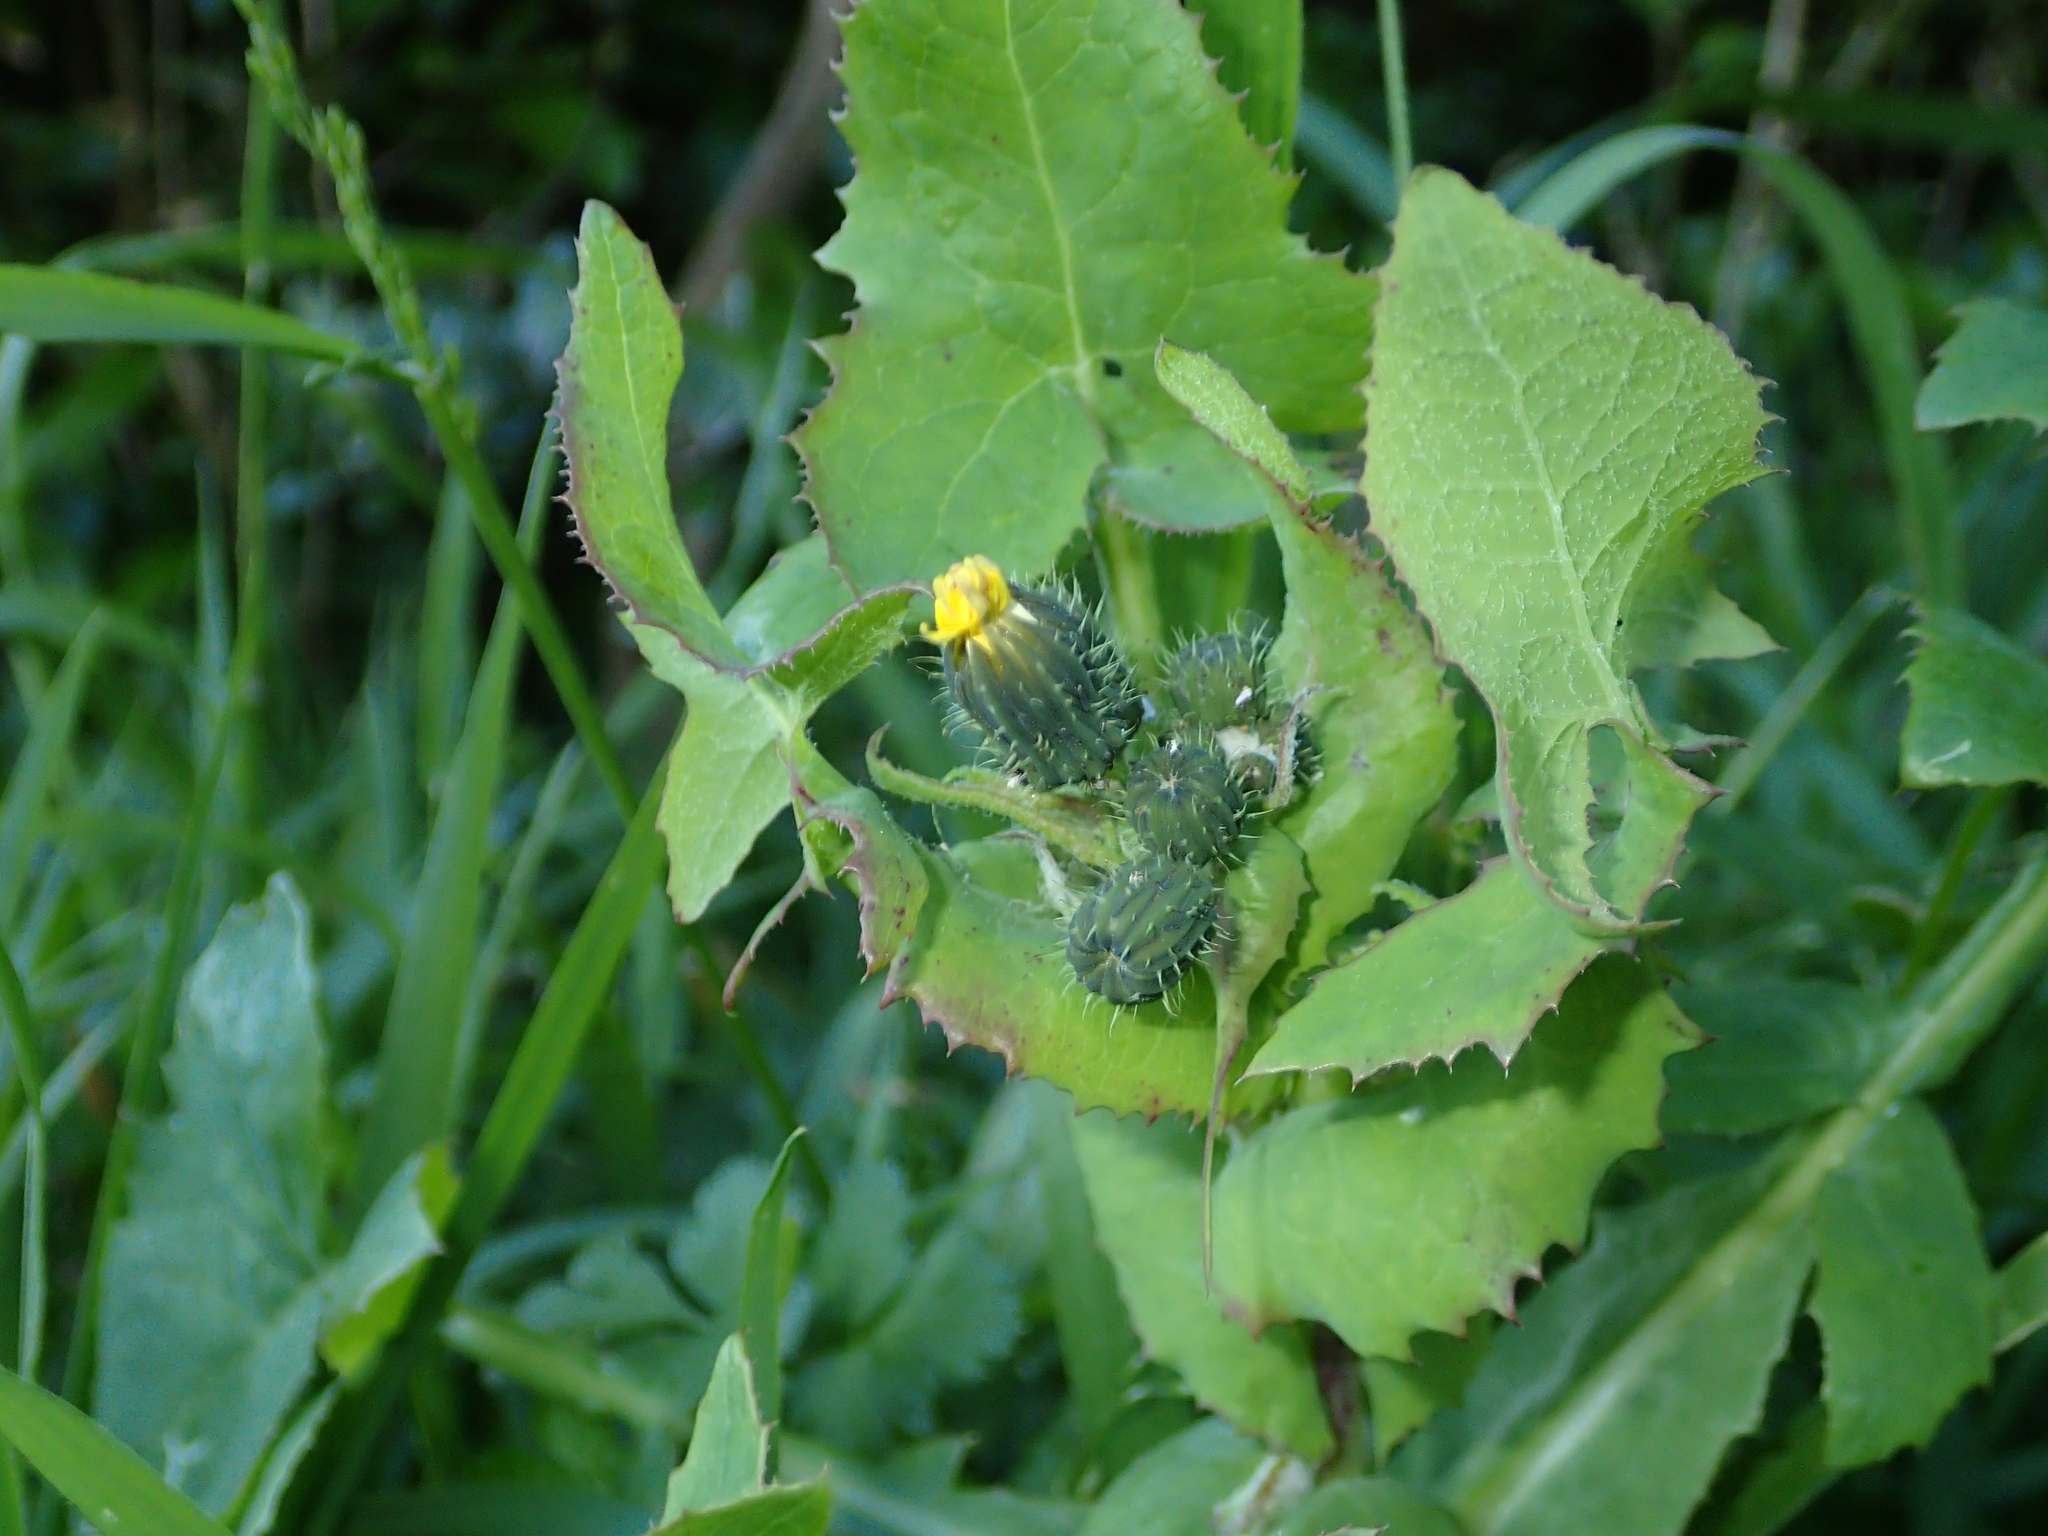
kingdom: Plantae
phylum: Tracheophyta
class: Magnoliopsida
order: Asterales
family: Asteraceae
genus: Sonchus
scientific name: Sonchus oleraceus
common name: Common sowthistle
